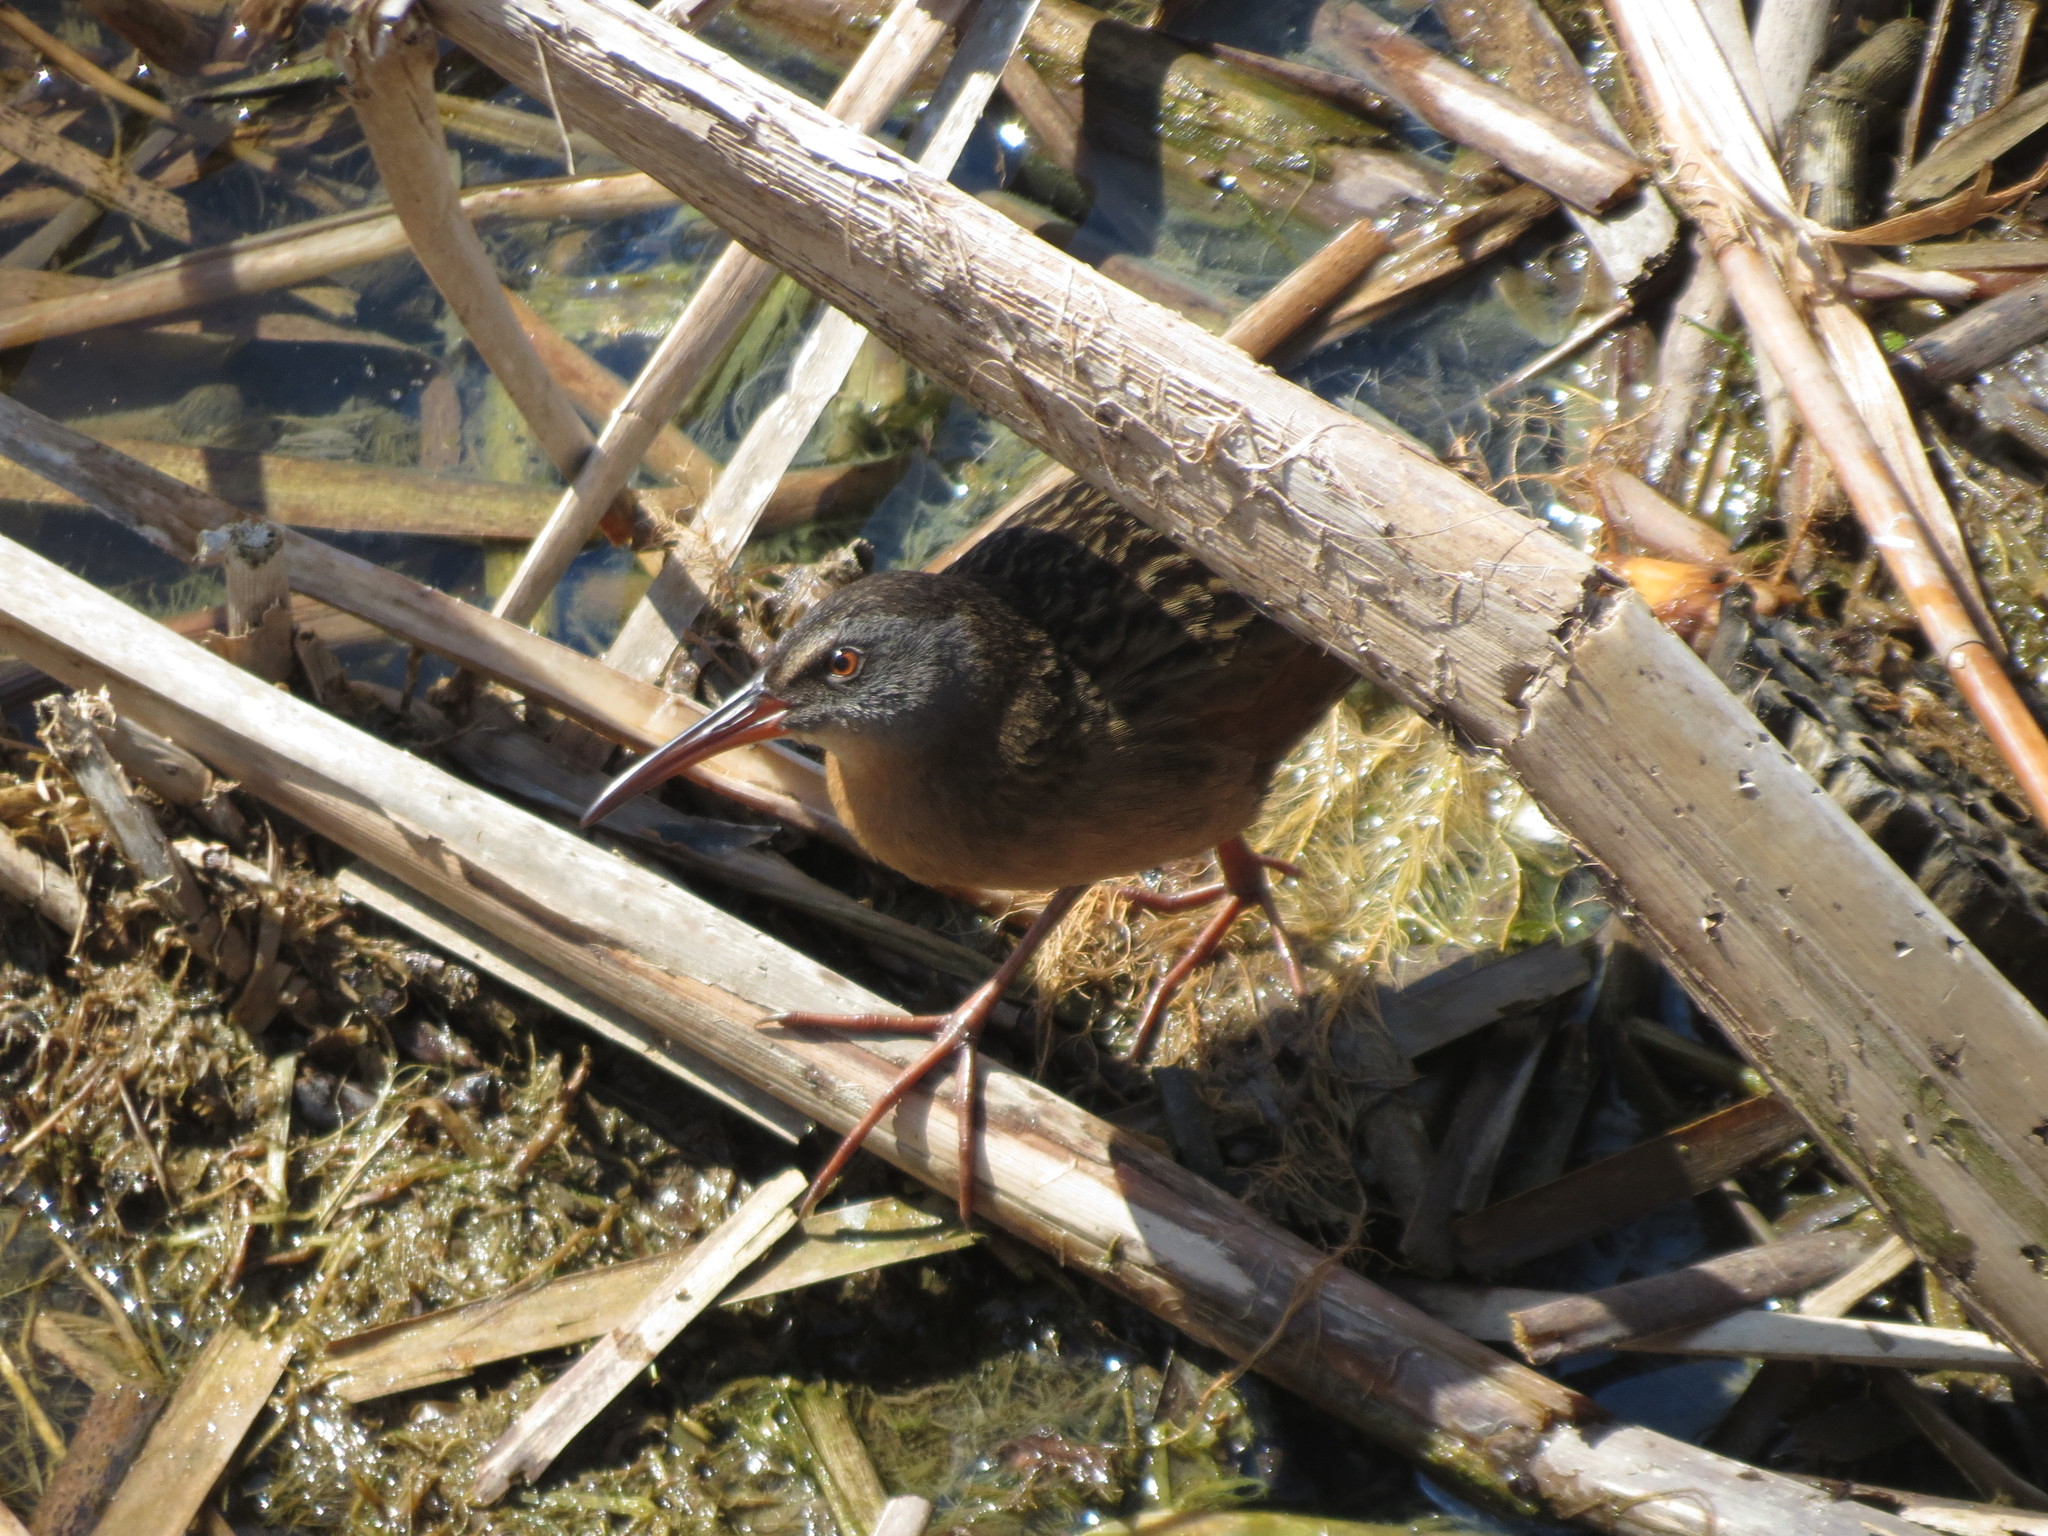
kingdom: Animalia
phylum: Chordata
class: Aves
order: Gruiformes
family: Rallidae
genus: Rallus
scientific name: Rallus limicola
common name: Virginia rail
